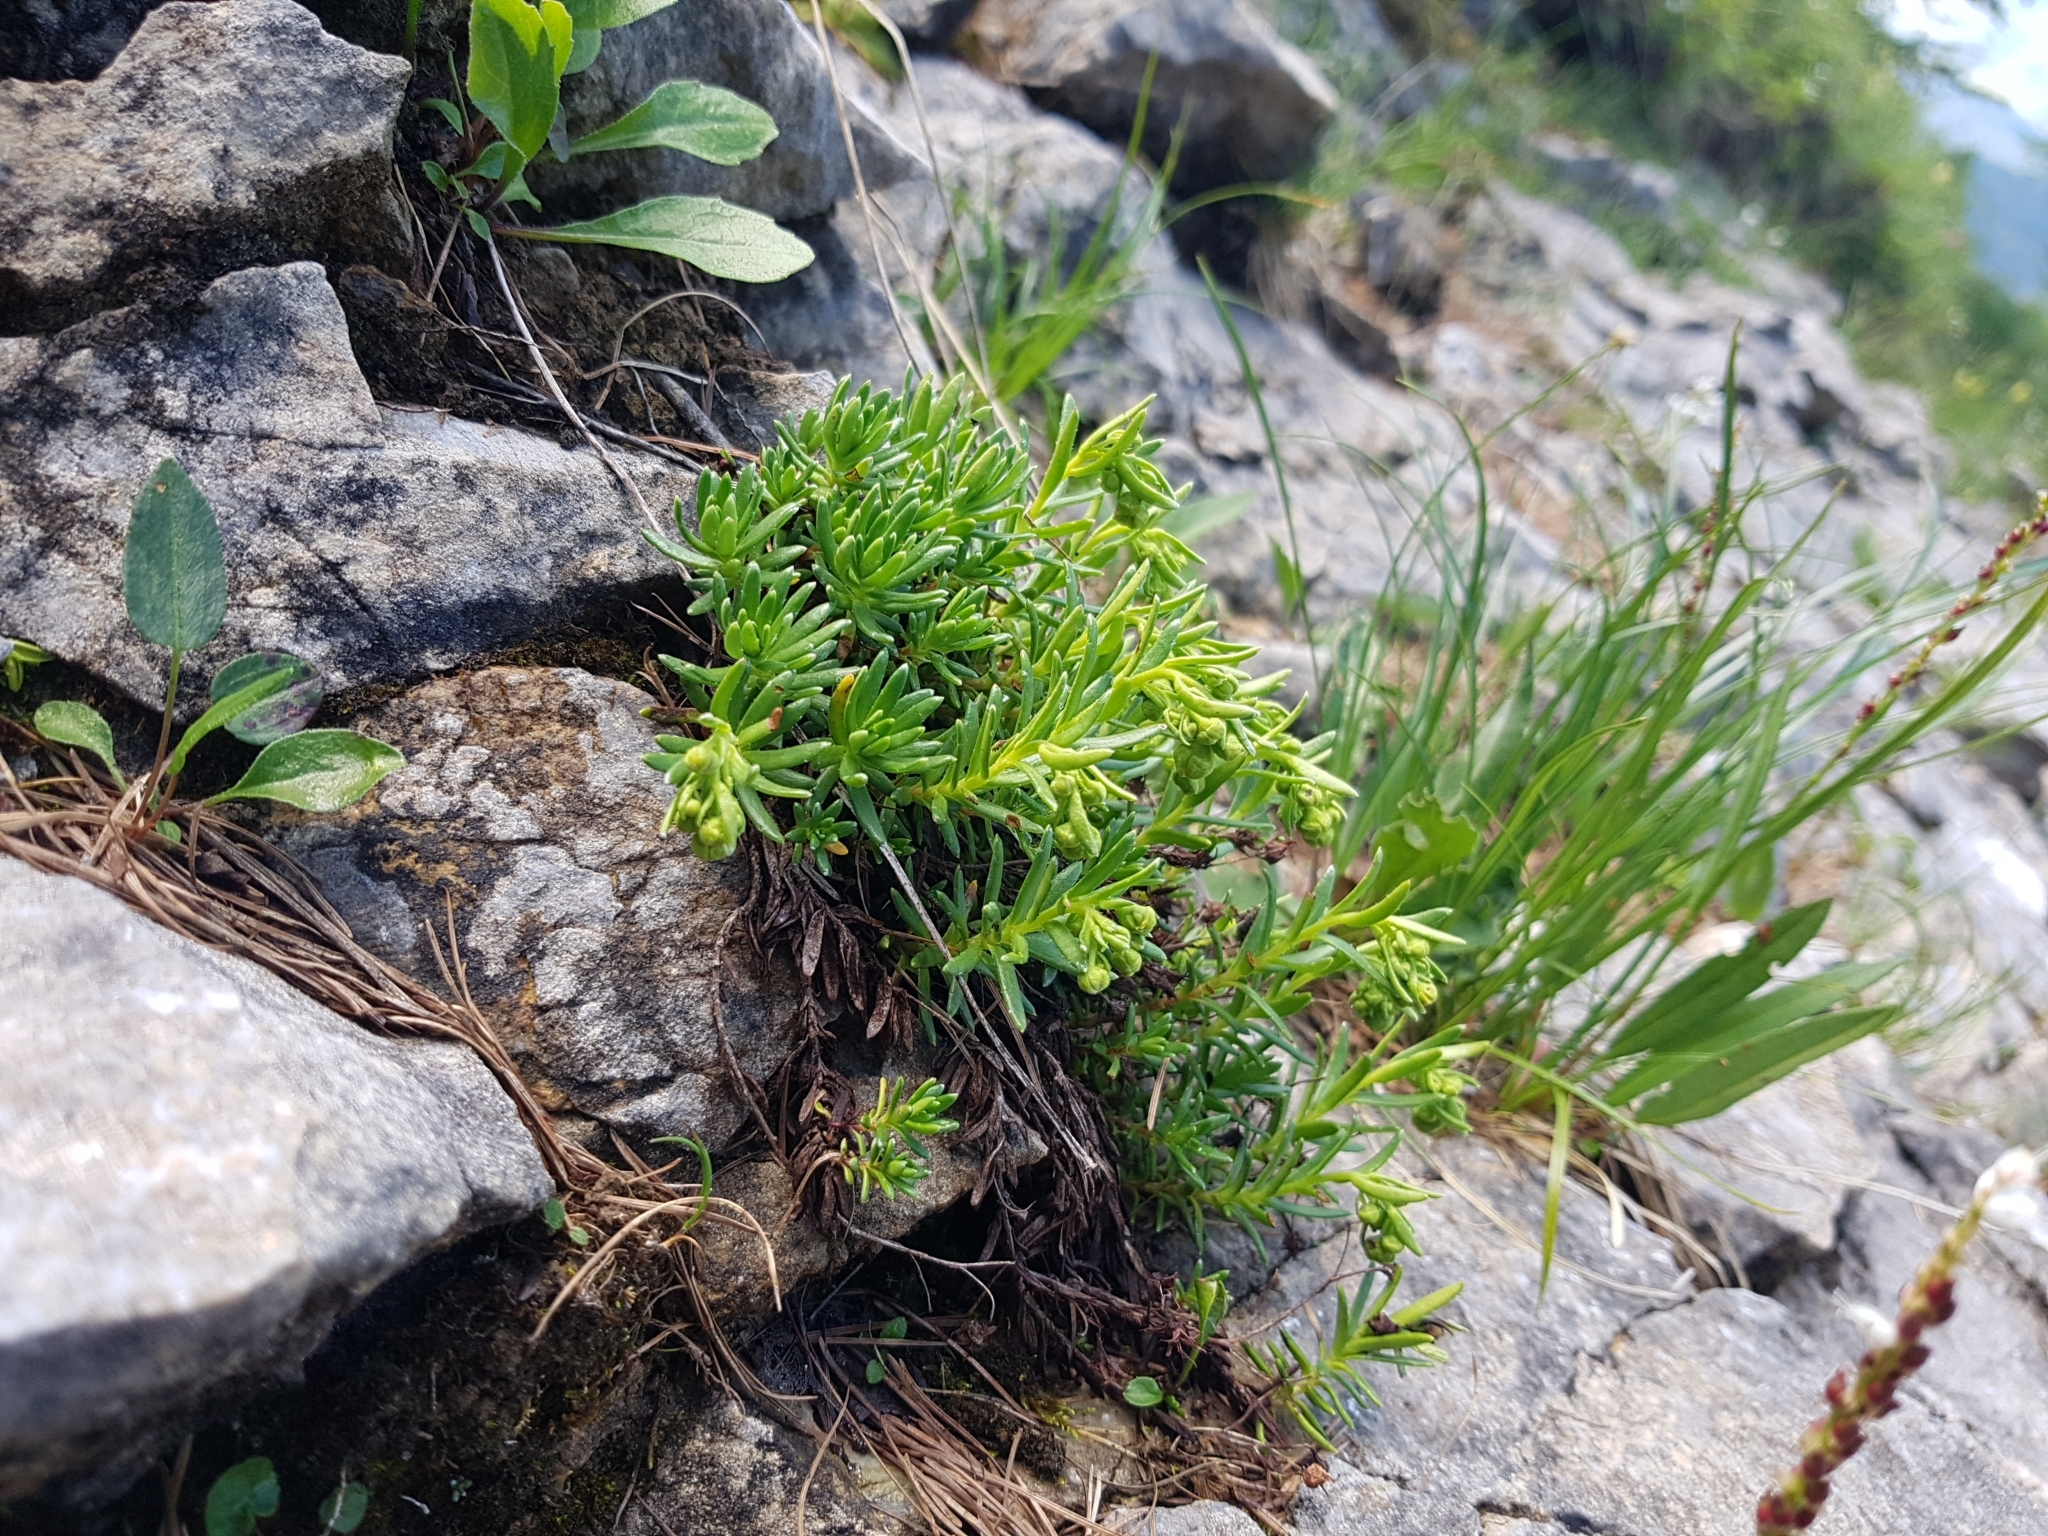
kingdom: Plantae
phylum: Tracheophyta
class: Magnoliopsida
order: Saxifragales
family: Saxifragaceae
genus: Saxifraga
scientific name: Saxifraga aizoides
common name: Yellow mountain saxifrage
